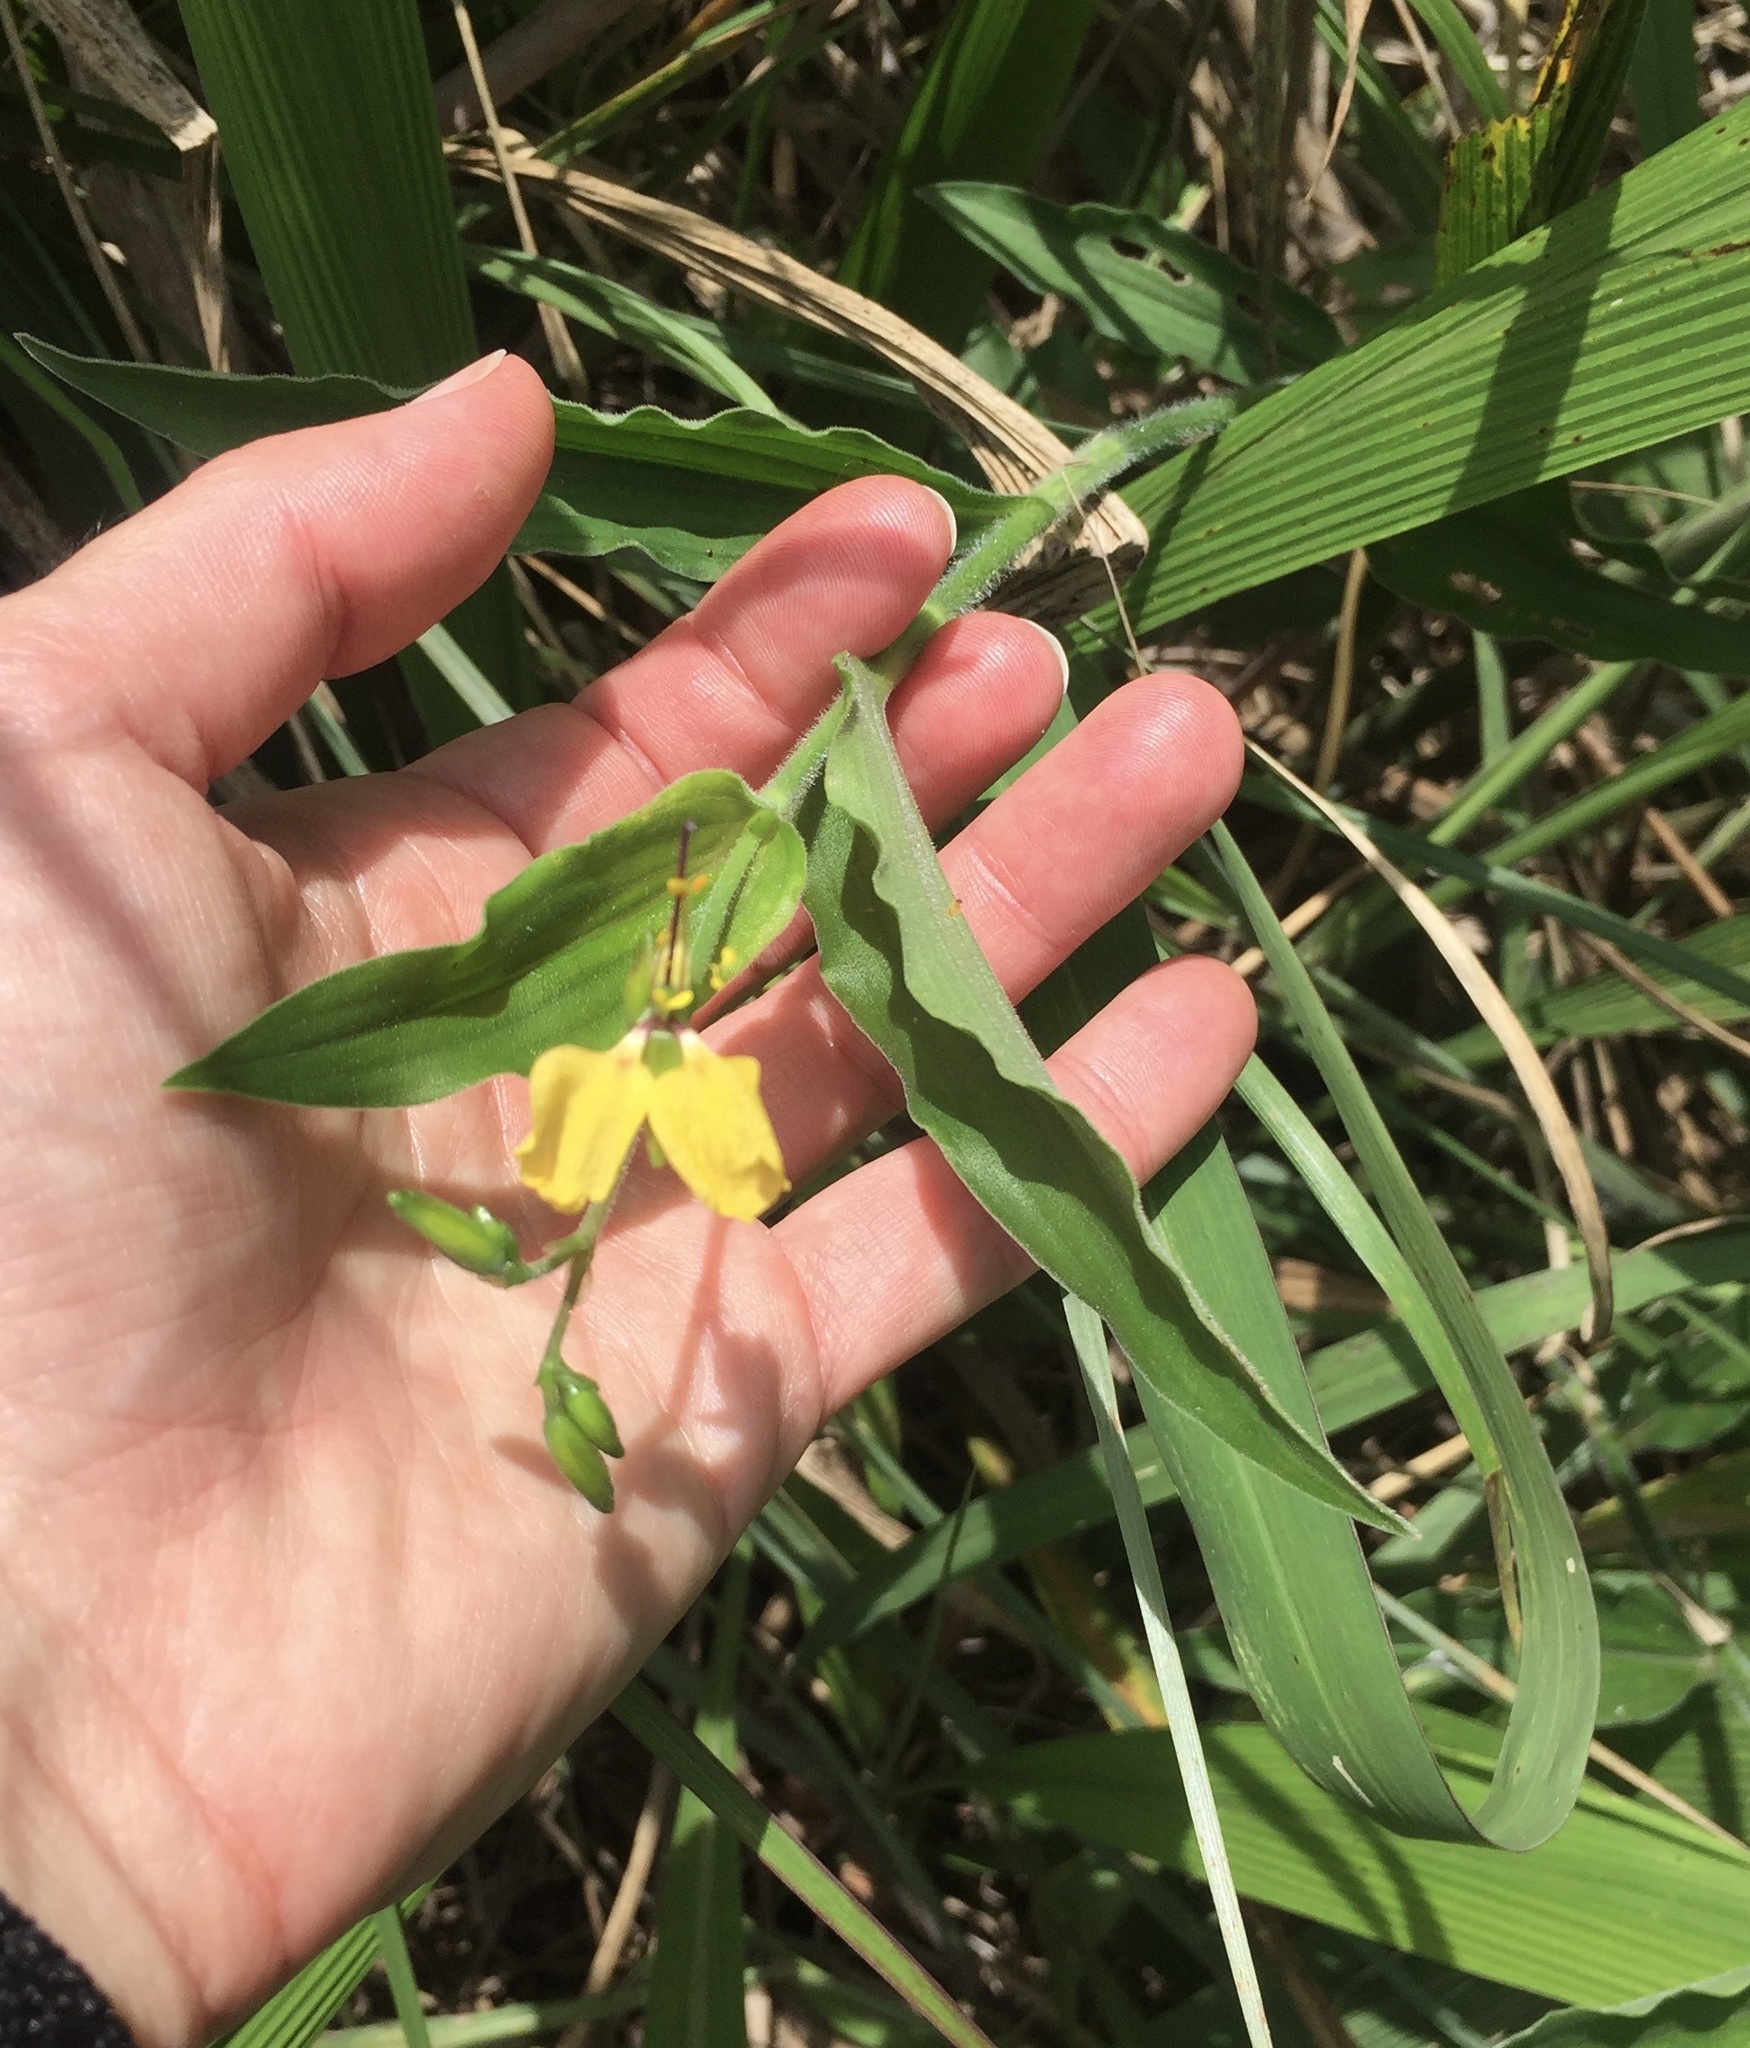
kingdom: Plantae
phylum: Tracheophyta
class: Liliopsida
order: Commelinales
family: Commelinaceae
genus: Aneilema
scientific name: Aneilema aequinoctiale
